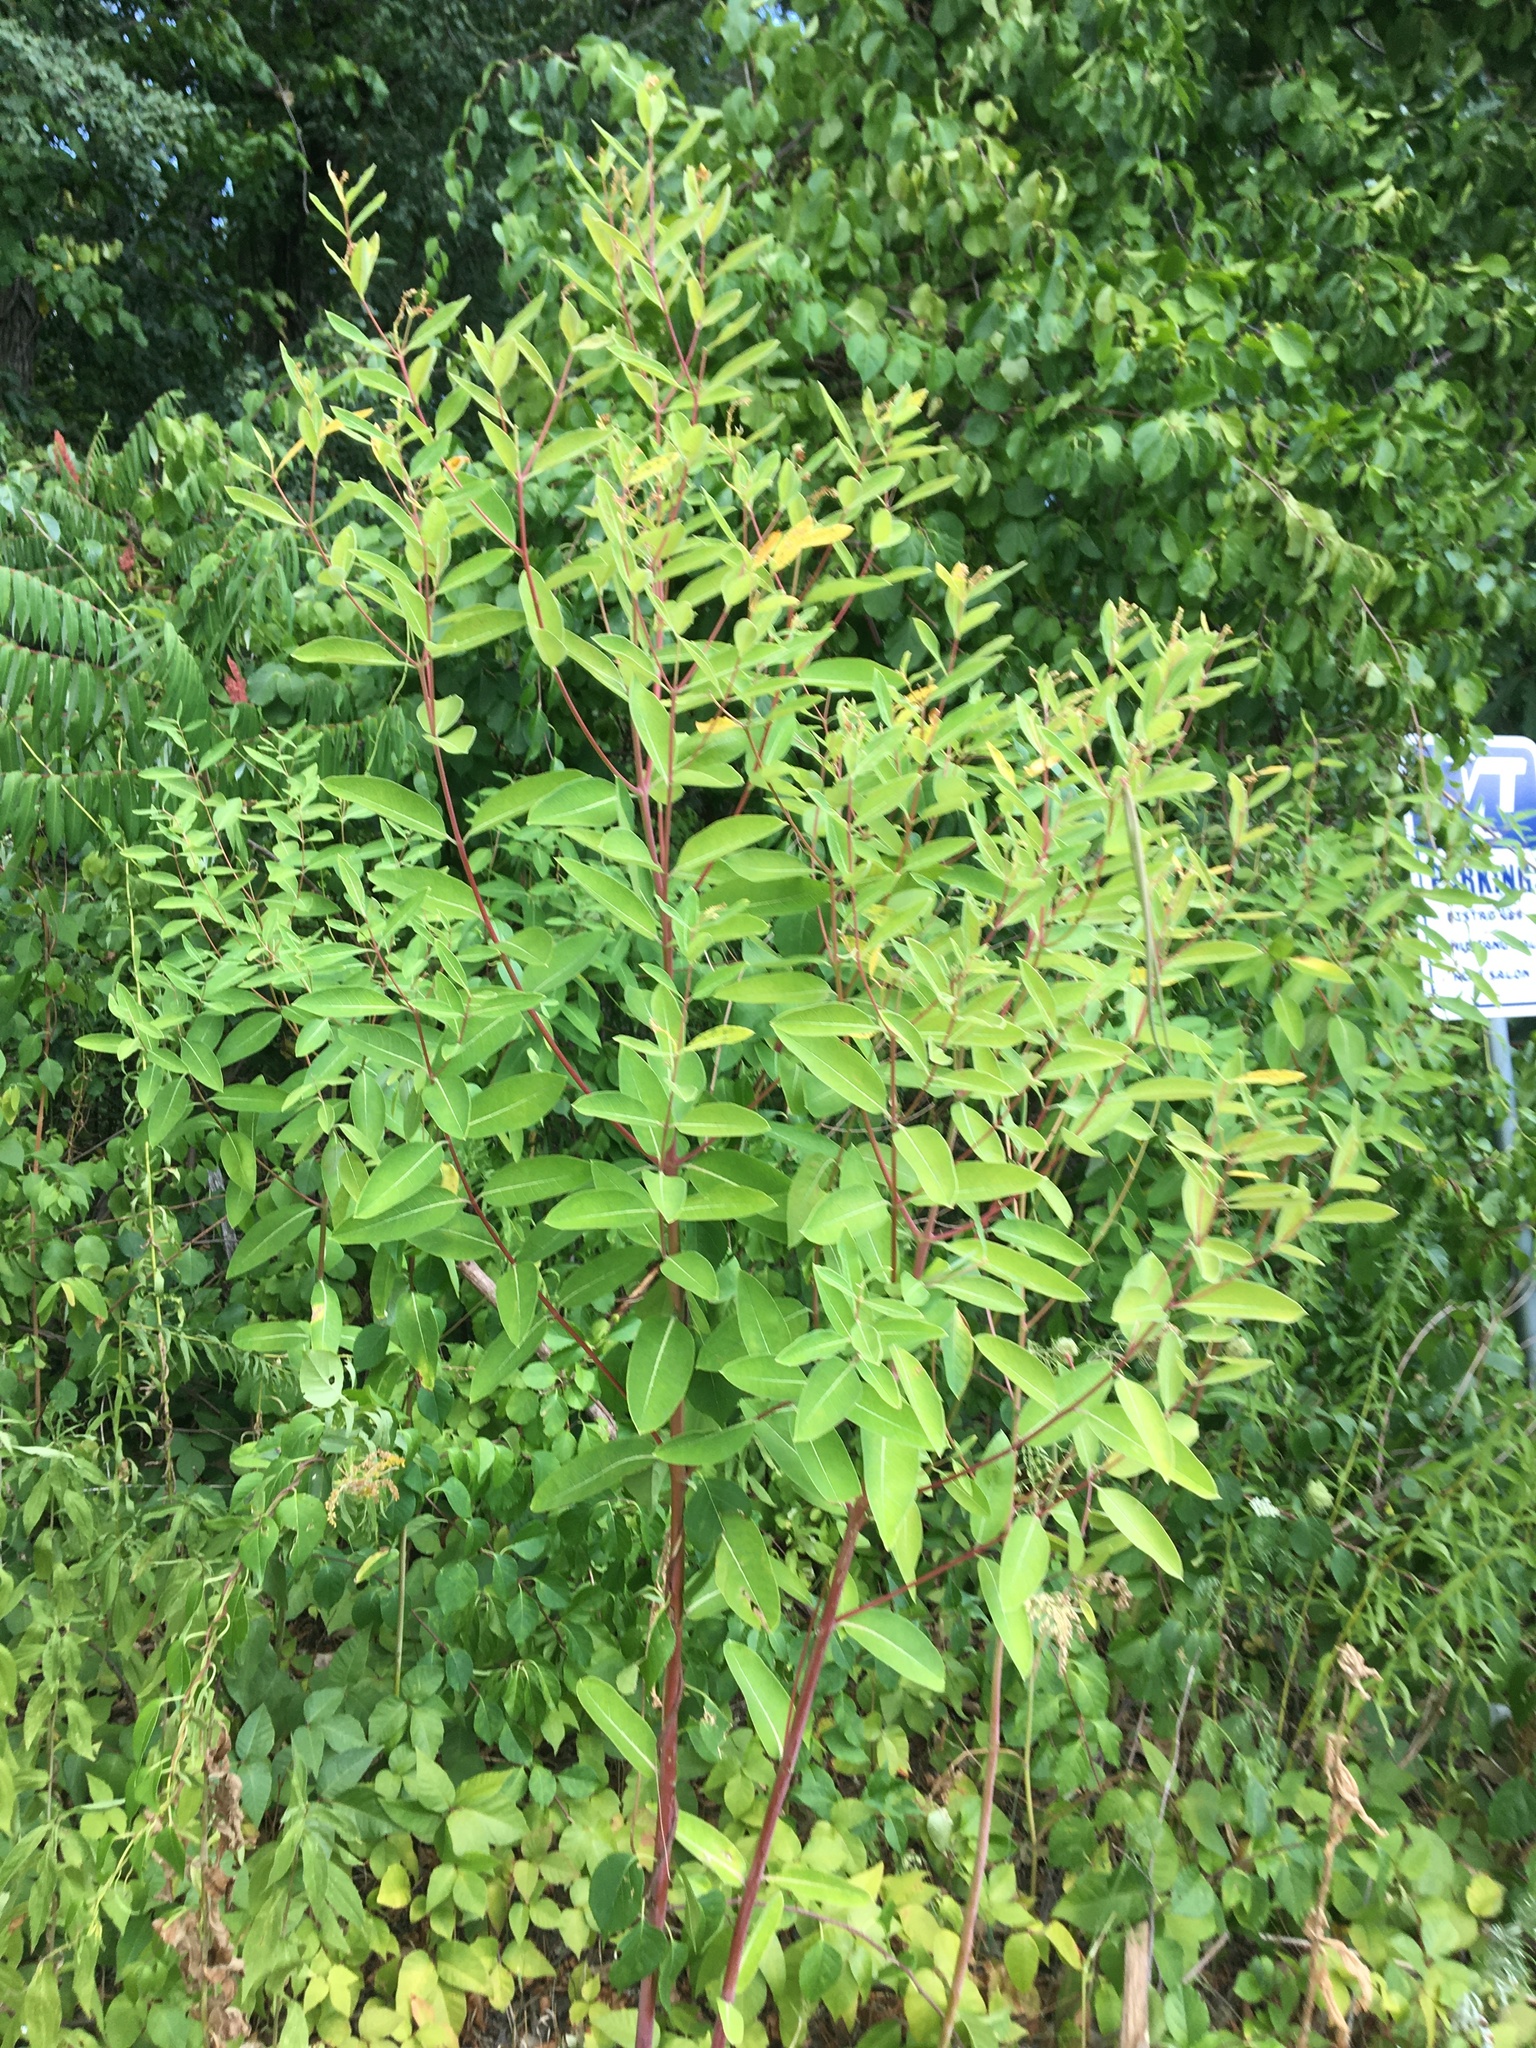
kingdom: Plantae
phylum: Tracheophyta
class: Magnoliopsida
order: Gentianales
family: Apocynaceae
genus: Apocynum
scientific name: Apocynum cannabinum
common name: Hemp dogbane
